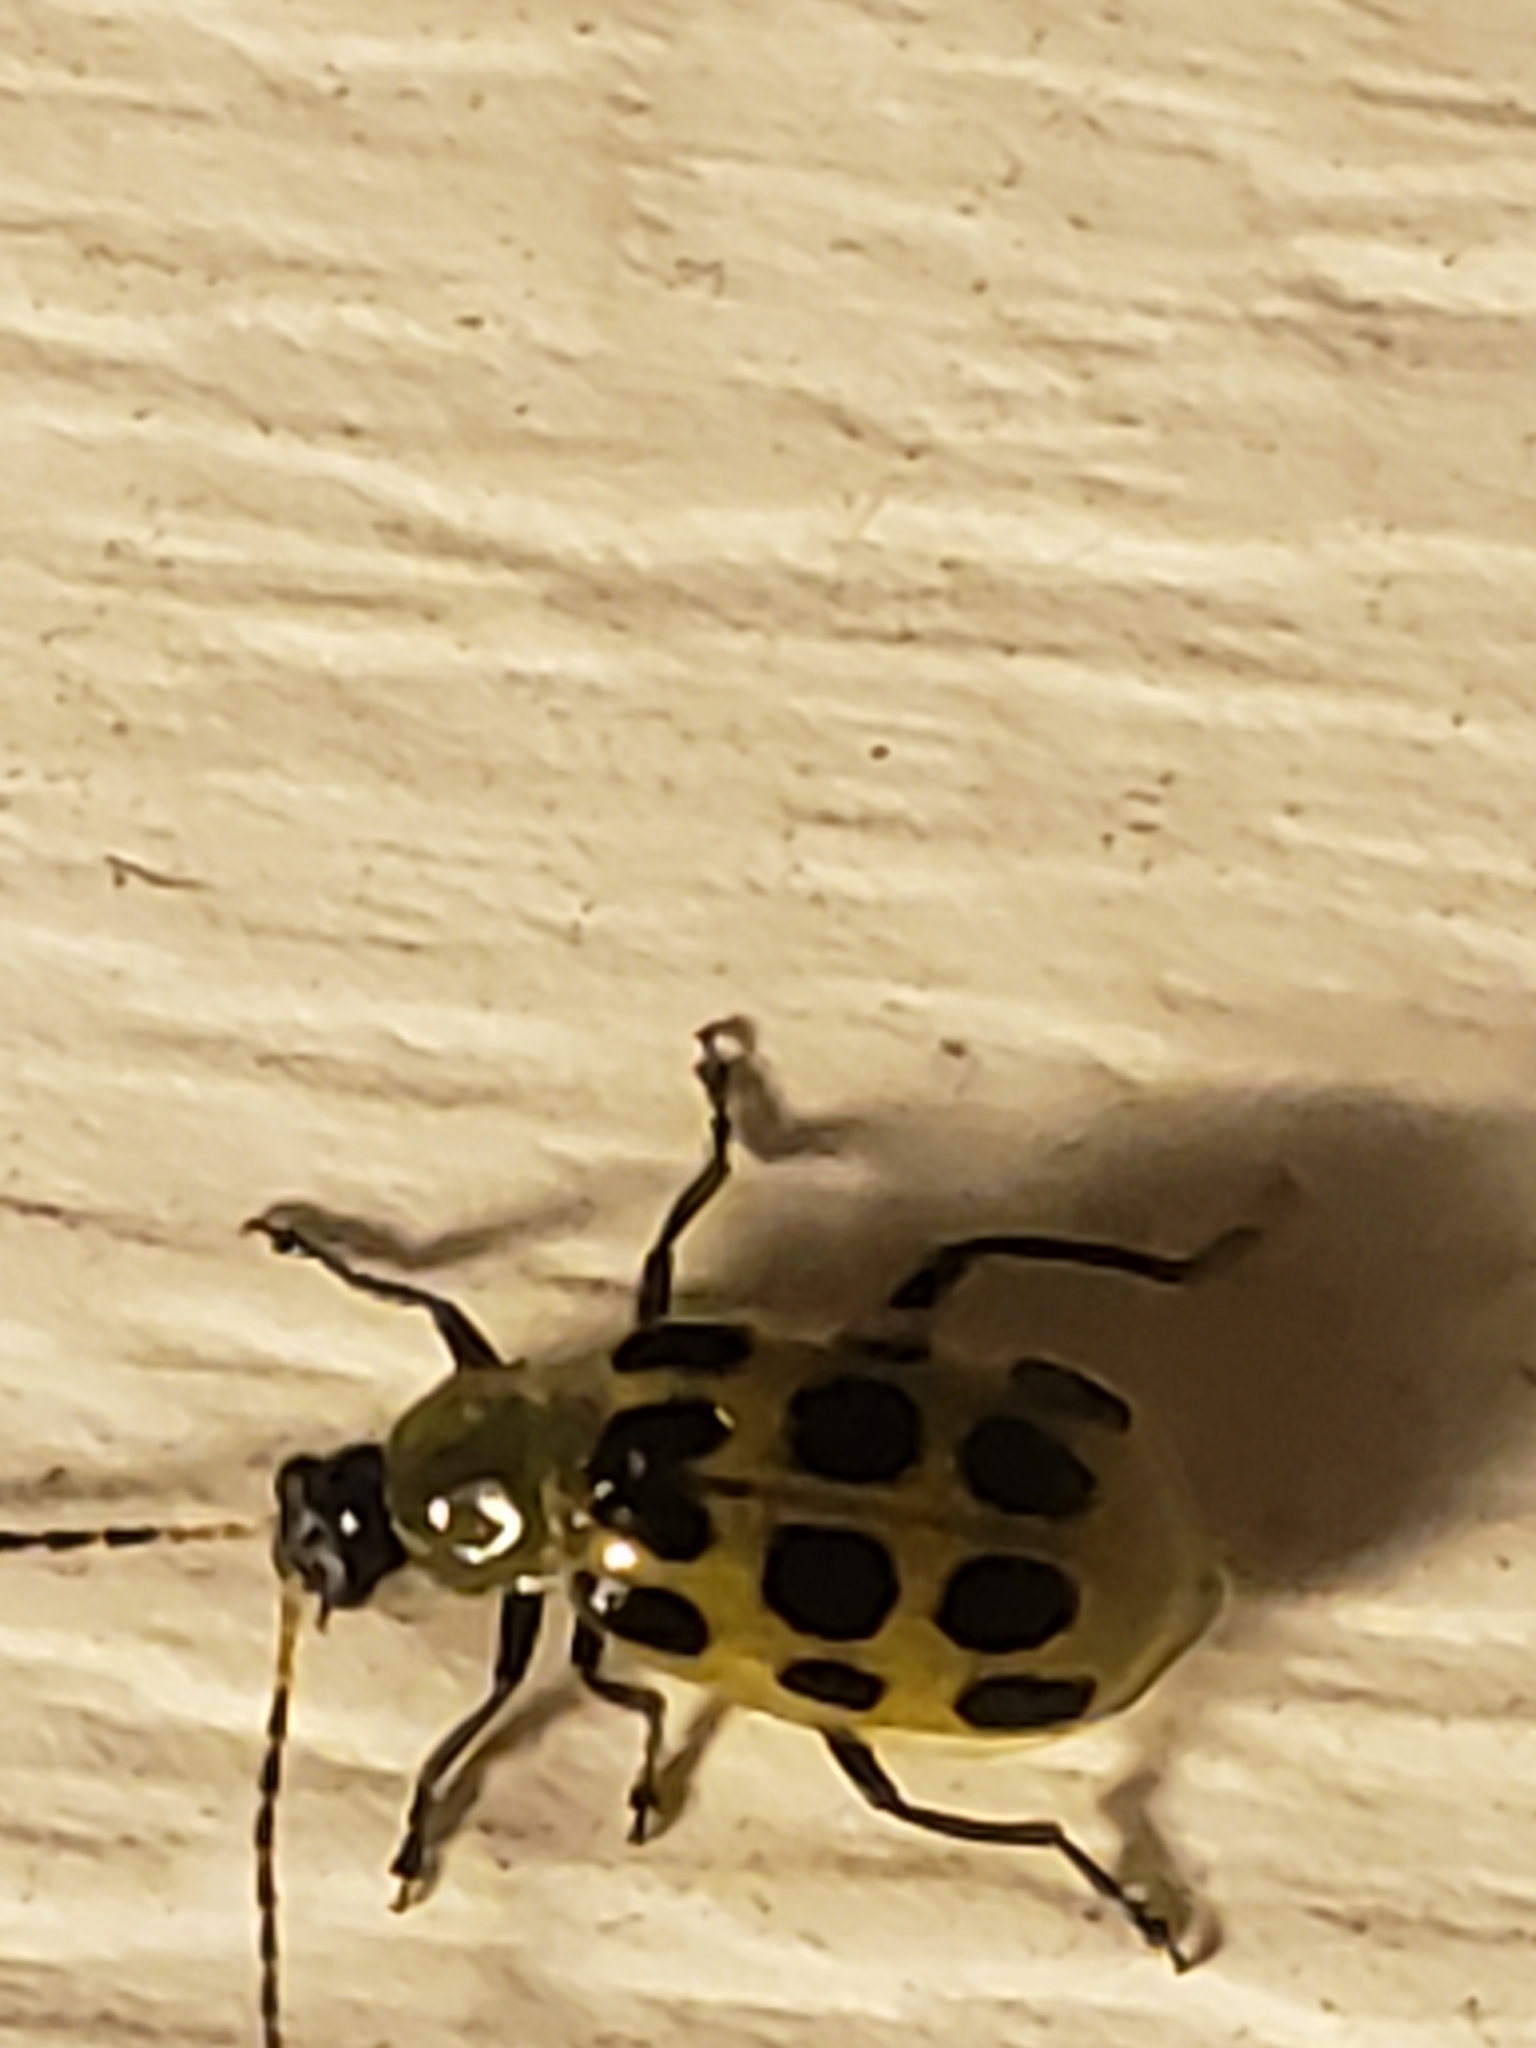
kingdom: Animalia
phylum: Arthropoda
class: Insecta
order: Coleoptera
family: Chrysomelidae
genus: Diabrotica
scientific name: Diabrotica undecimpunctata
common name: Spotted cucumber beetle
